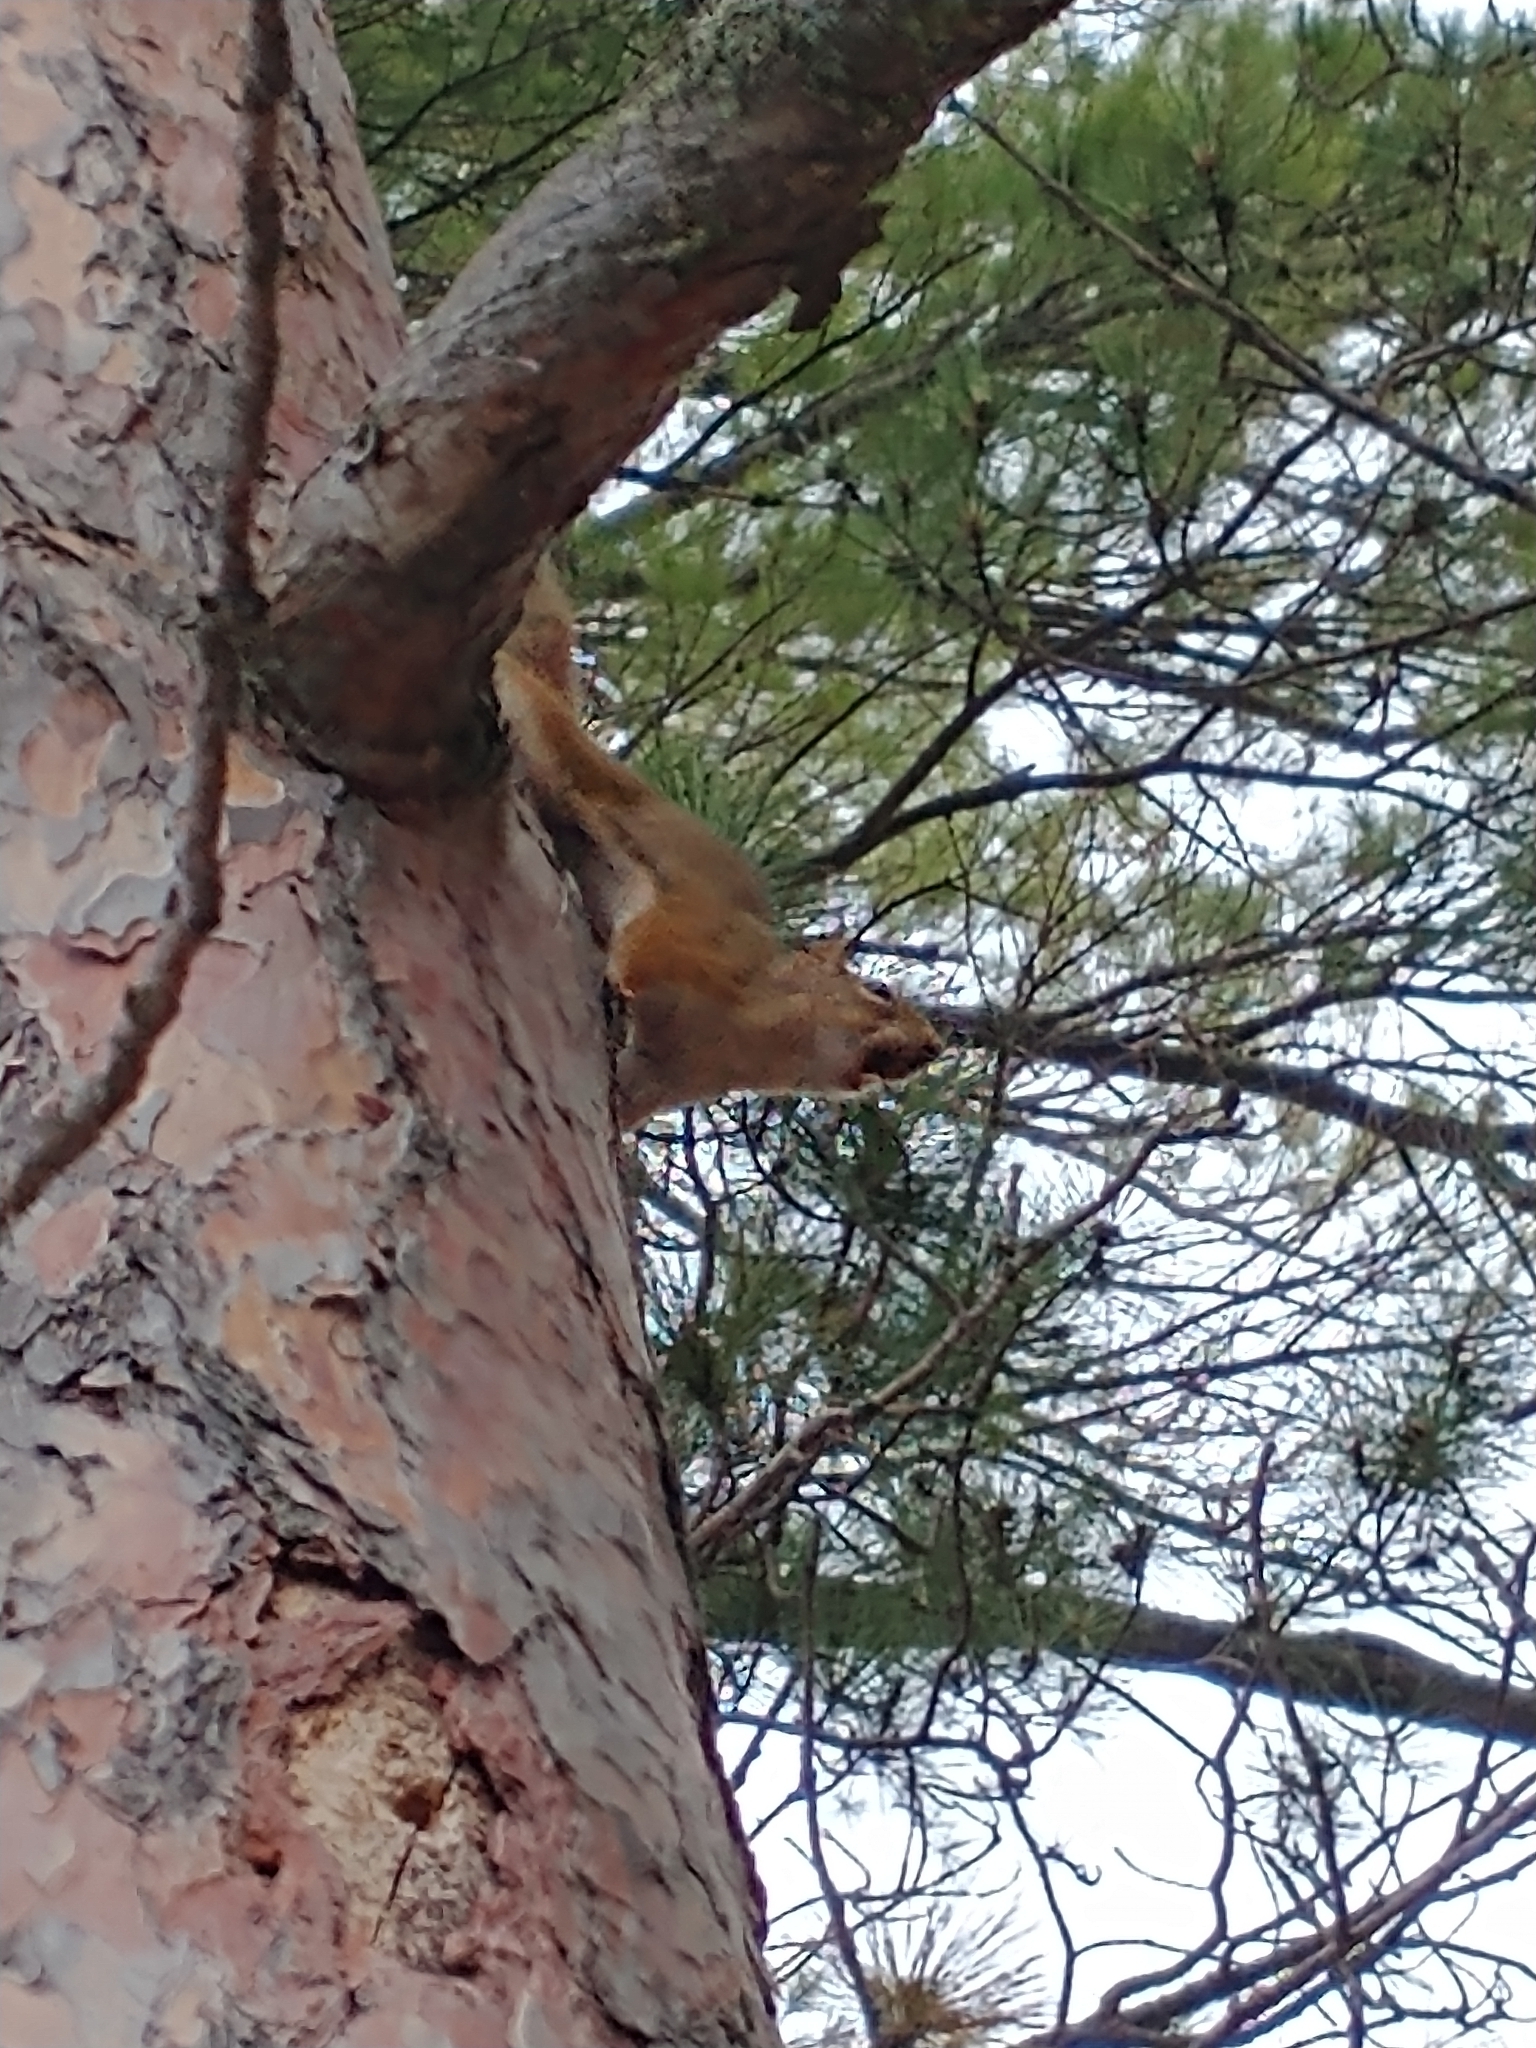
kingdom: Animalia
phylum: Chordata
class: Mammalia
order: Rodentia
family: Sciuridae
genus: Tamiasciurus
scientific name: Tamiasciurus hudsonicus
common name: Red squirrel
